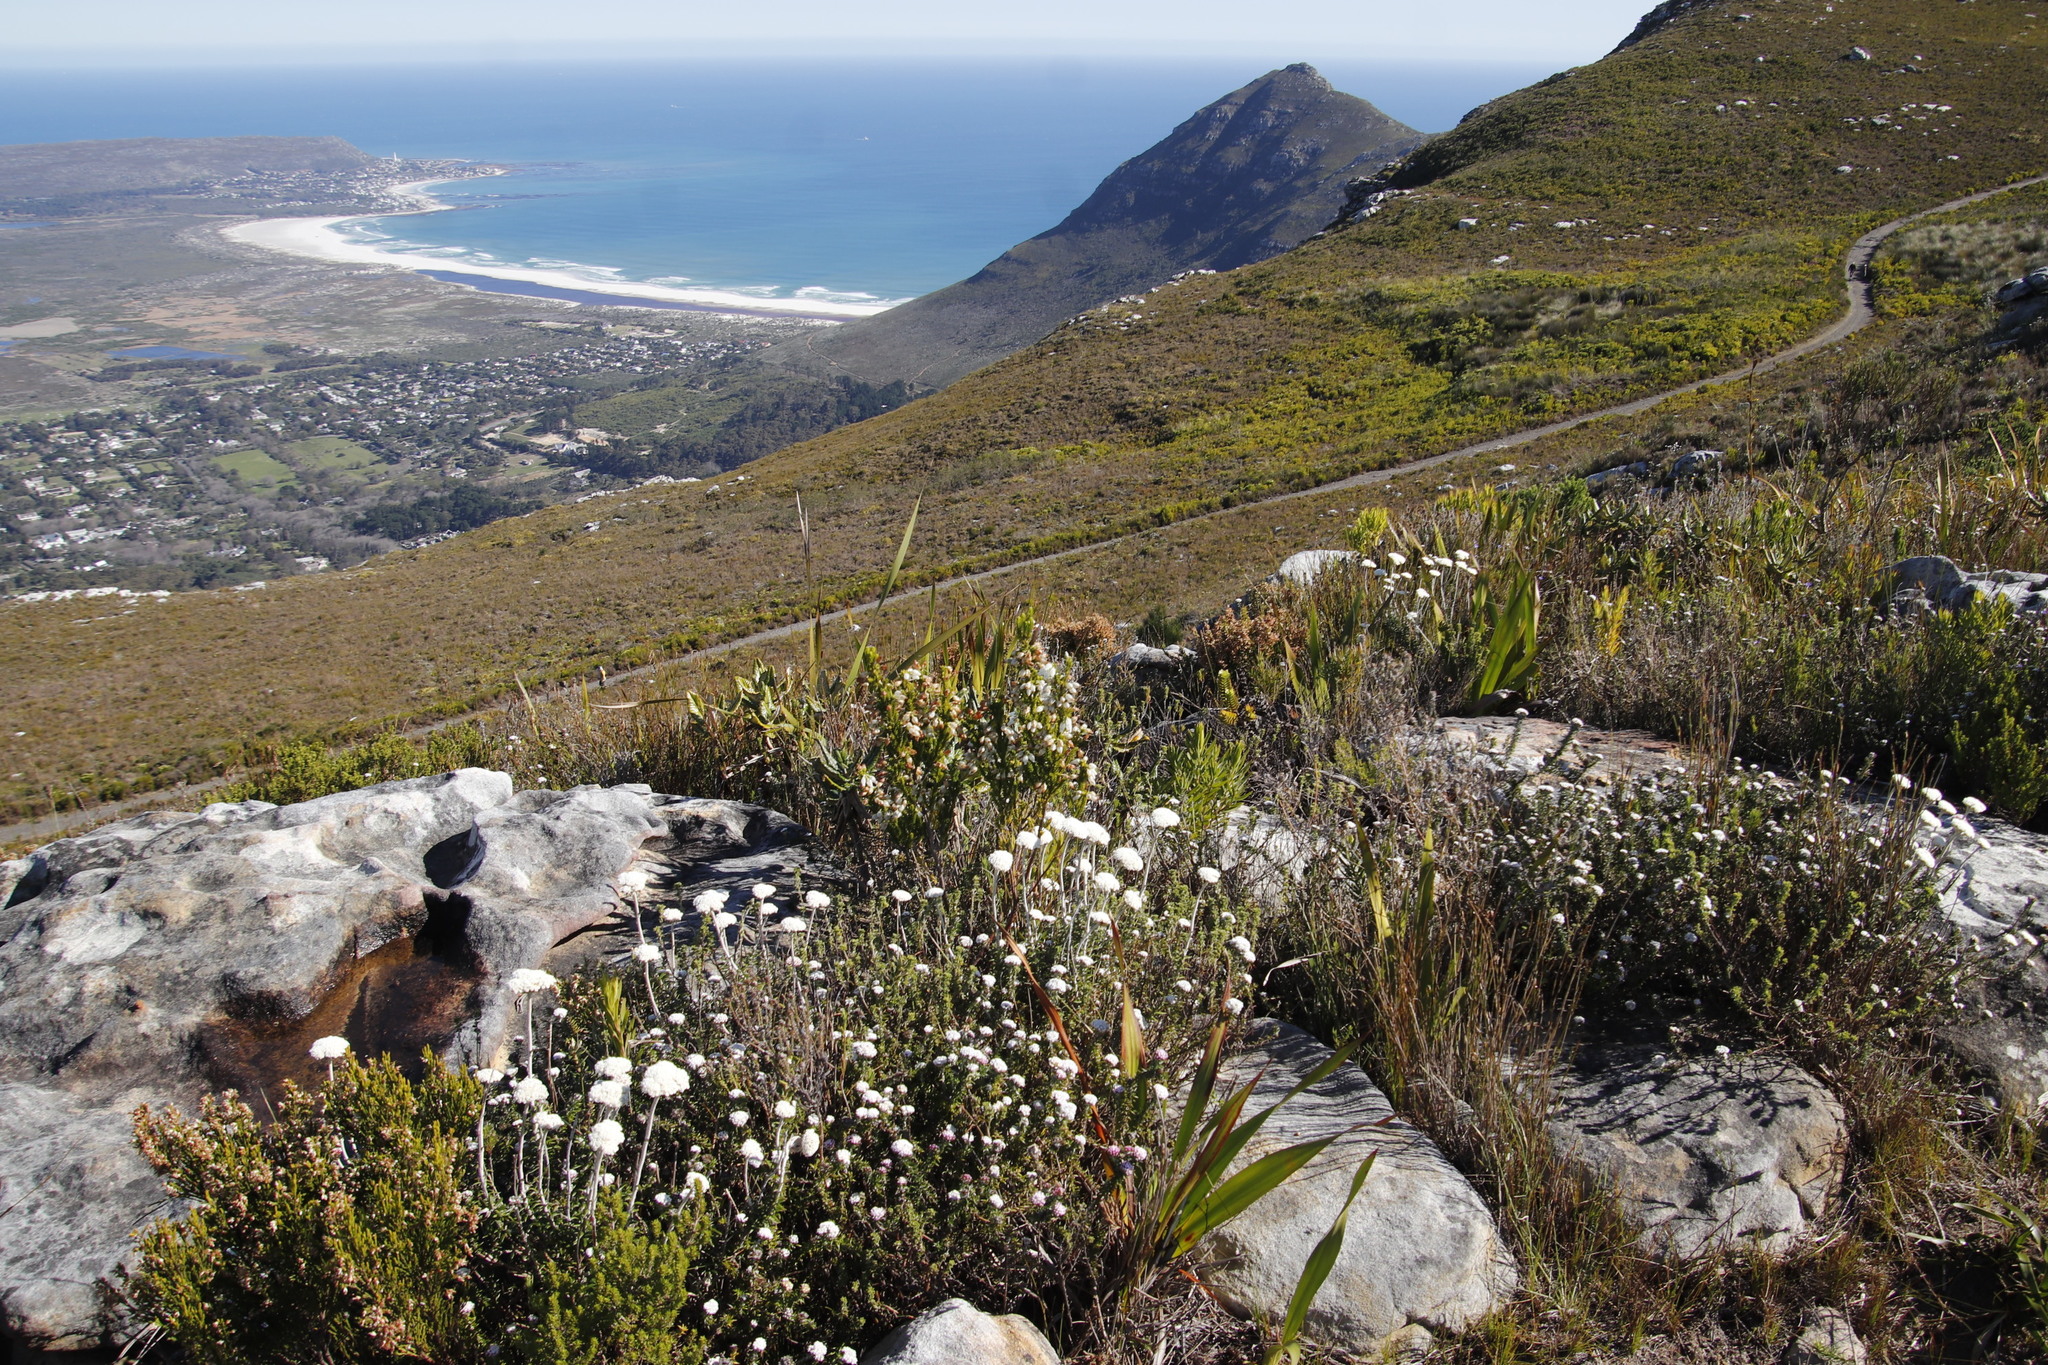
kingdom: Plantae
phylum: Tracheophyta
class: Magnoliopsida
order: Ericales
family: Ericaceae
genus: Erica
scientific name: Erica physodes
